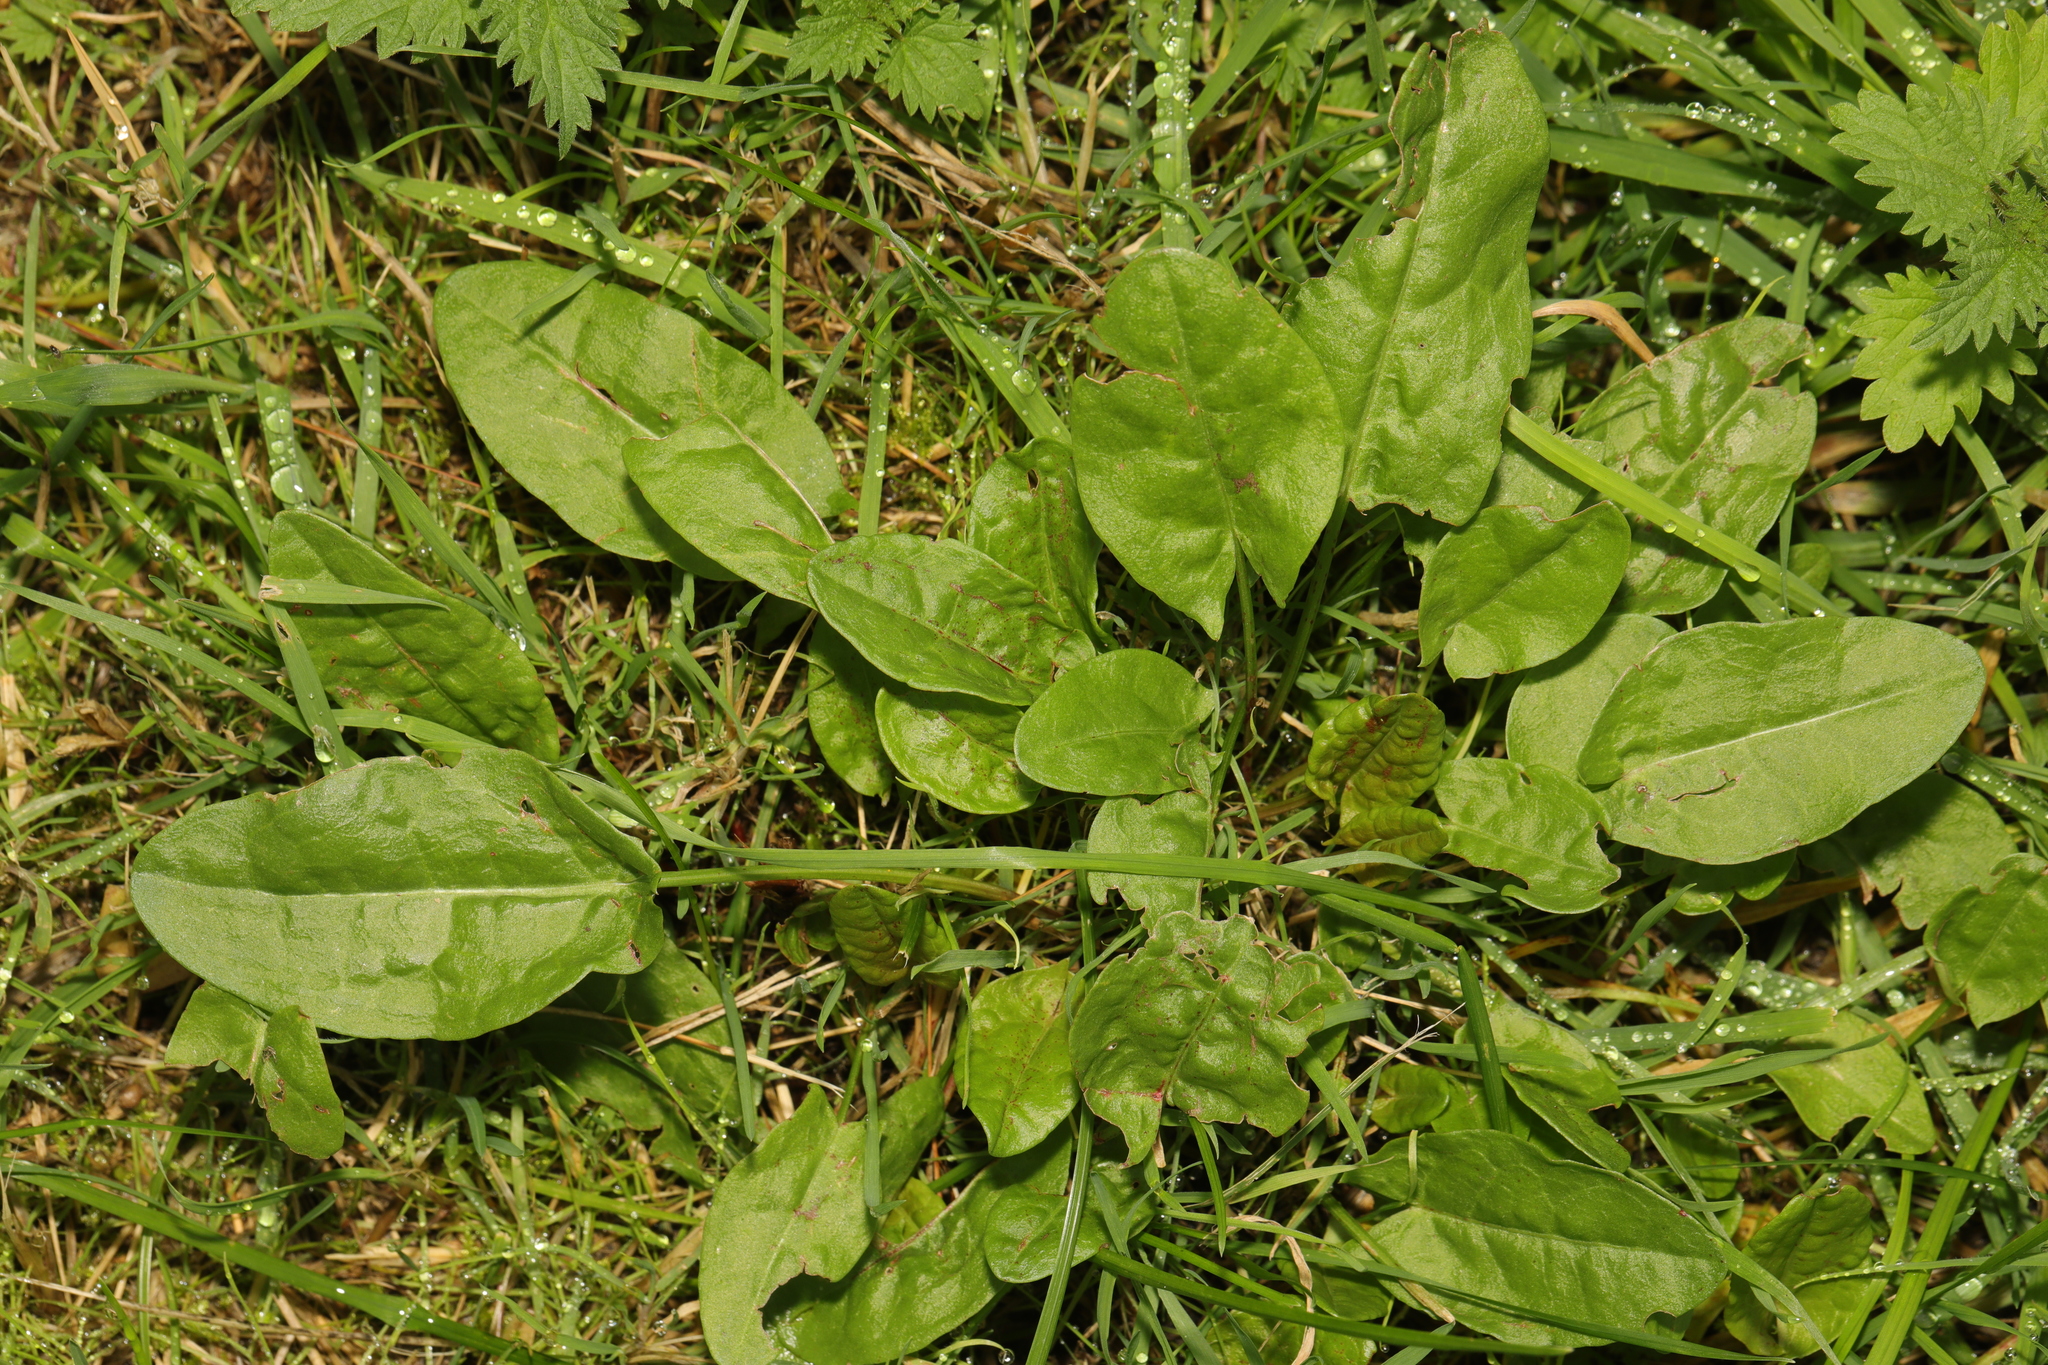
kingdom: Plantae
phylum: Tracheophyta
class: Magnoliopsida
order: Caryophyllales
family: Polygonaceae
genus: Rumex
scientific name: Rumex acetosa
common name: Garden sorrel
